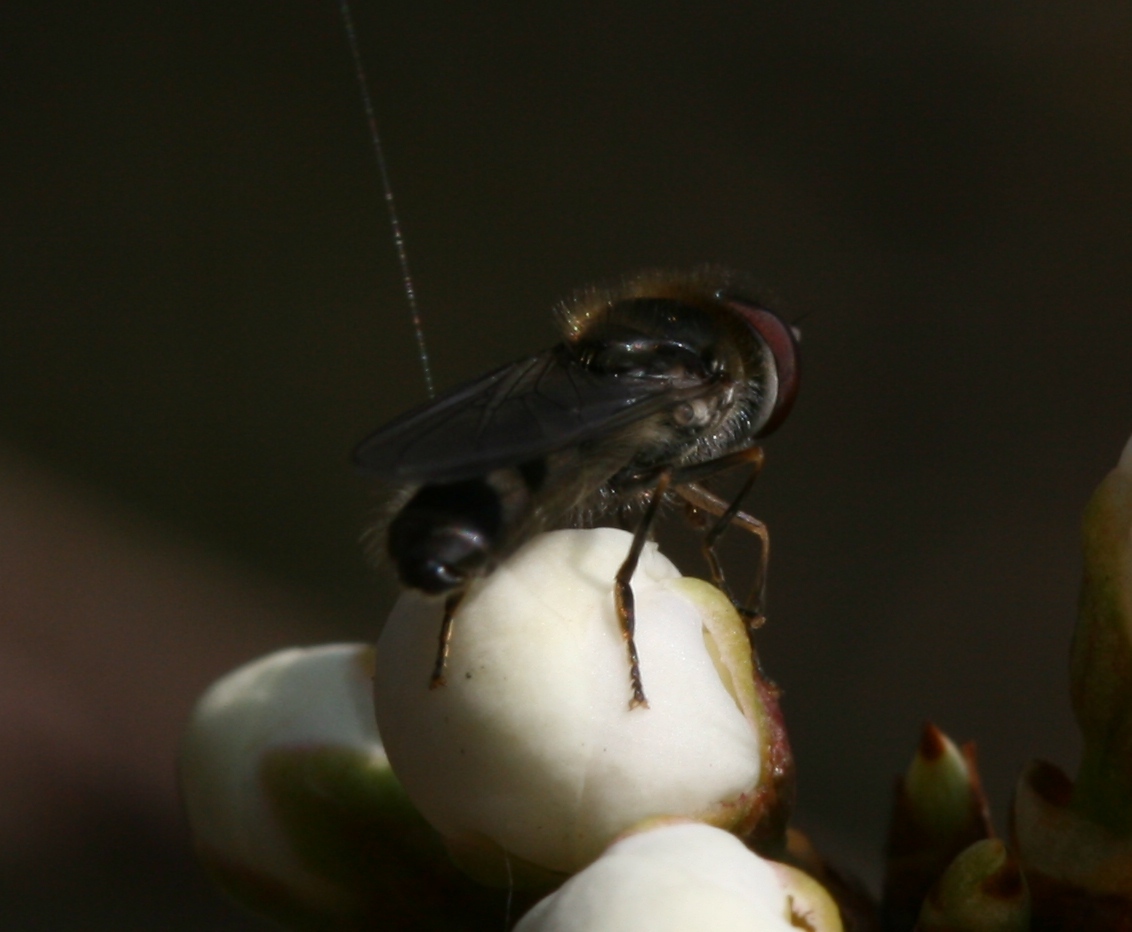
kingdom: Animalia
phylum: Arthropoda
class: Insecta
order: Diptera
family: Syrphidae
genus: Platycheirus
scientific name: Platycheirus ambiguum
